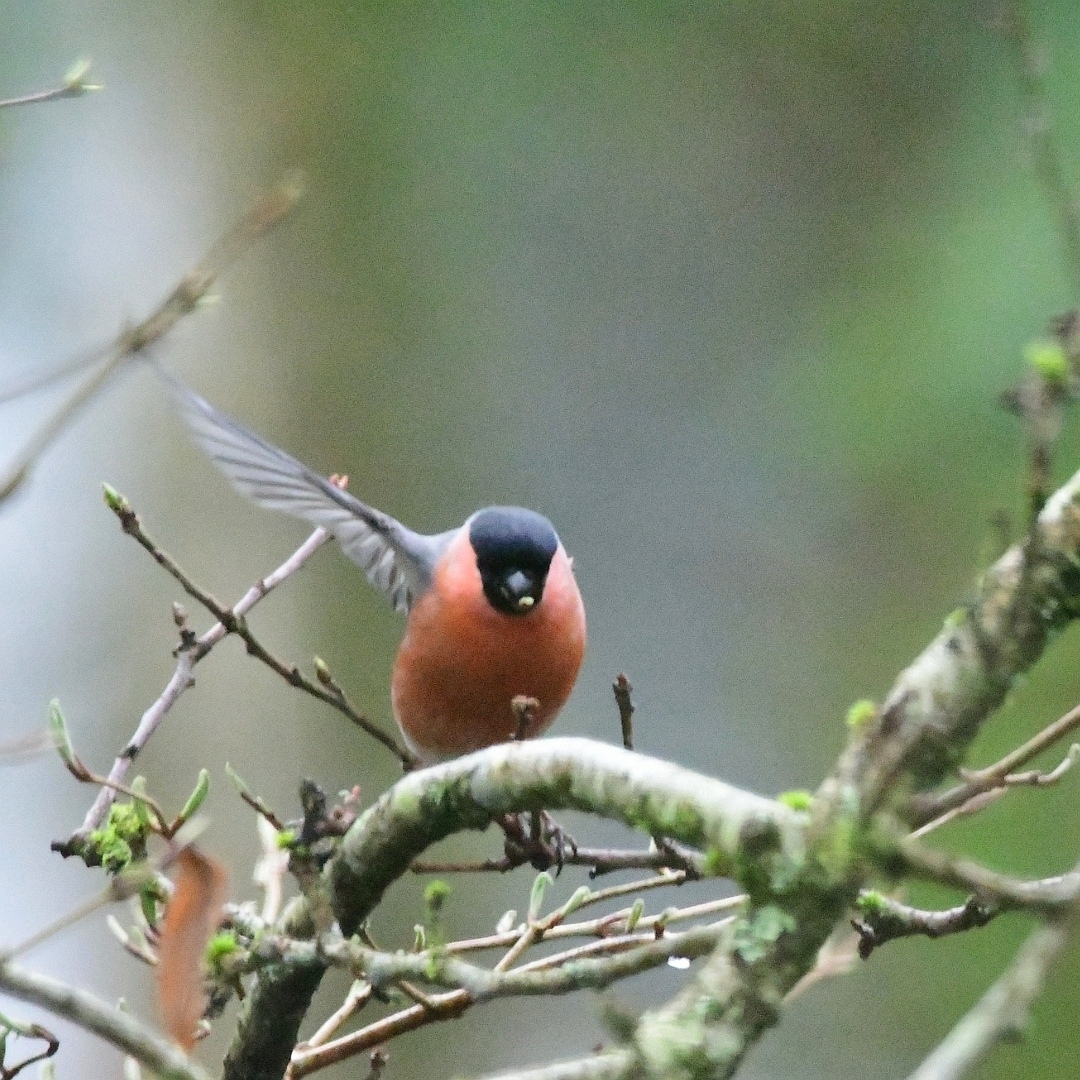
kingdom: Animalia
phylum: Chordata
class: Aves
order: Passeriformes
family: Fringillidae
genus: Pyrrhula
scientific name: Pyrrhula pyrrhula
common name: Eurasian bullfinch
